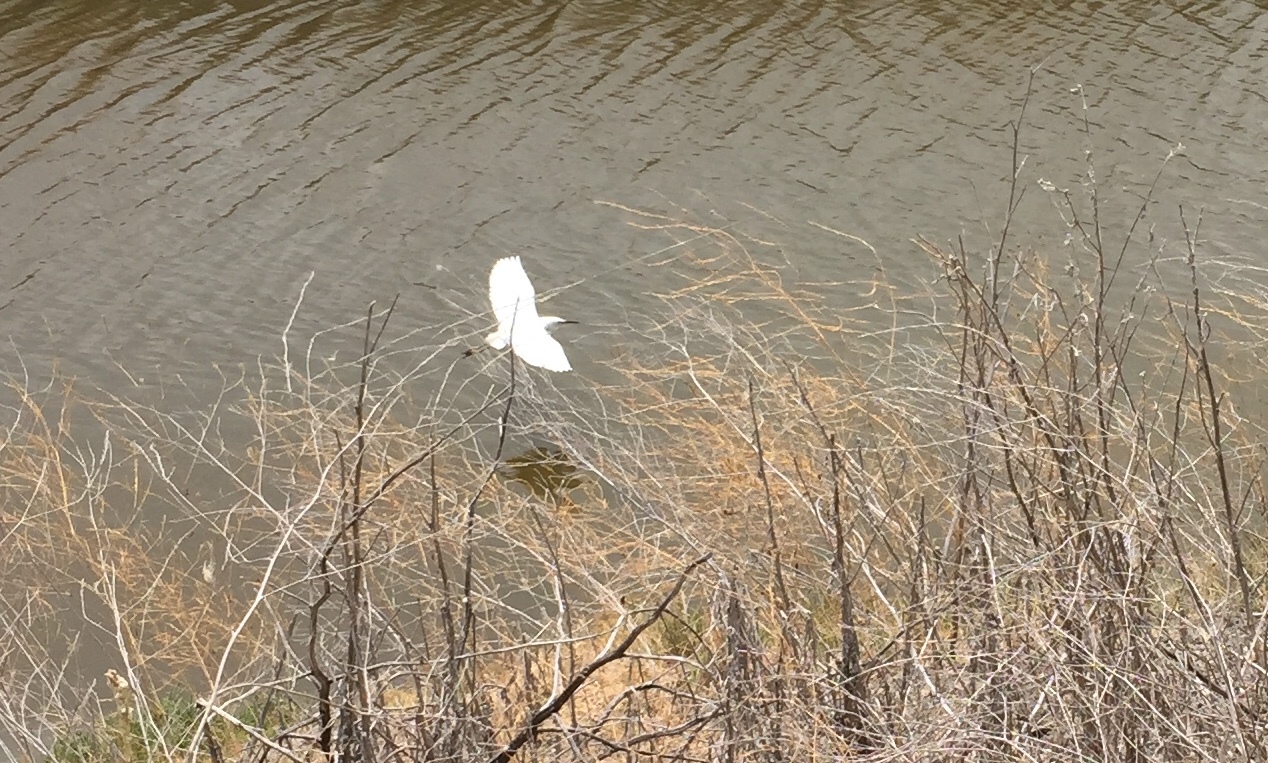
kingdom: Animalia
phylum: Chordata
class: Aves
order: Pelecaniformes
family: Ardeidae
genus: Egretta
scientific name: Egretta thula
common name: Snowy egret
